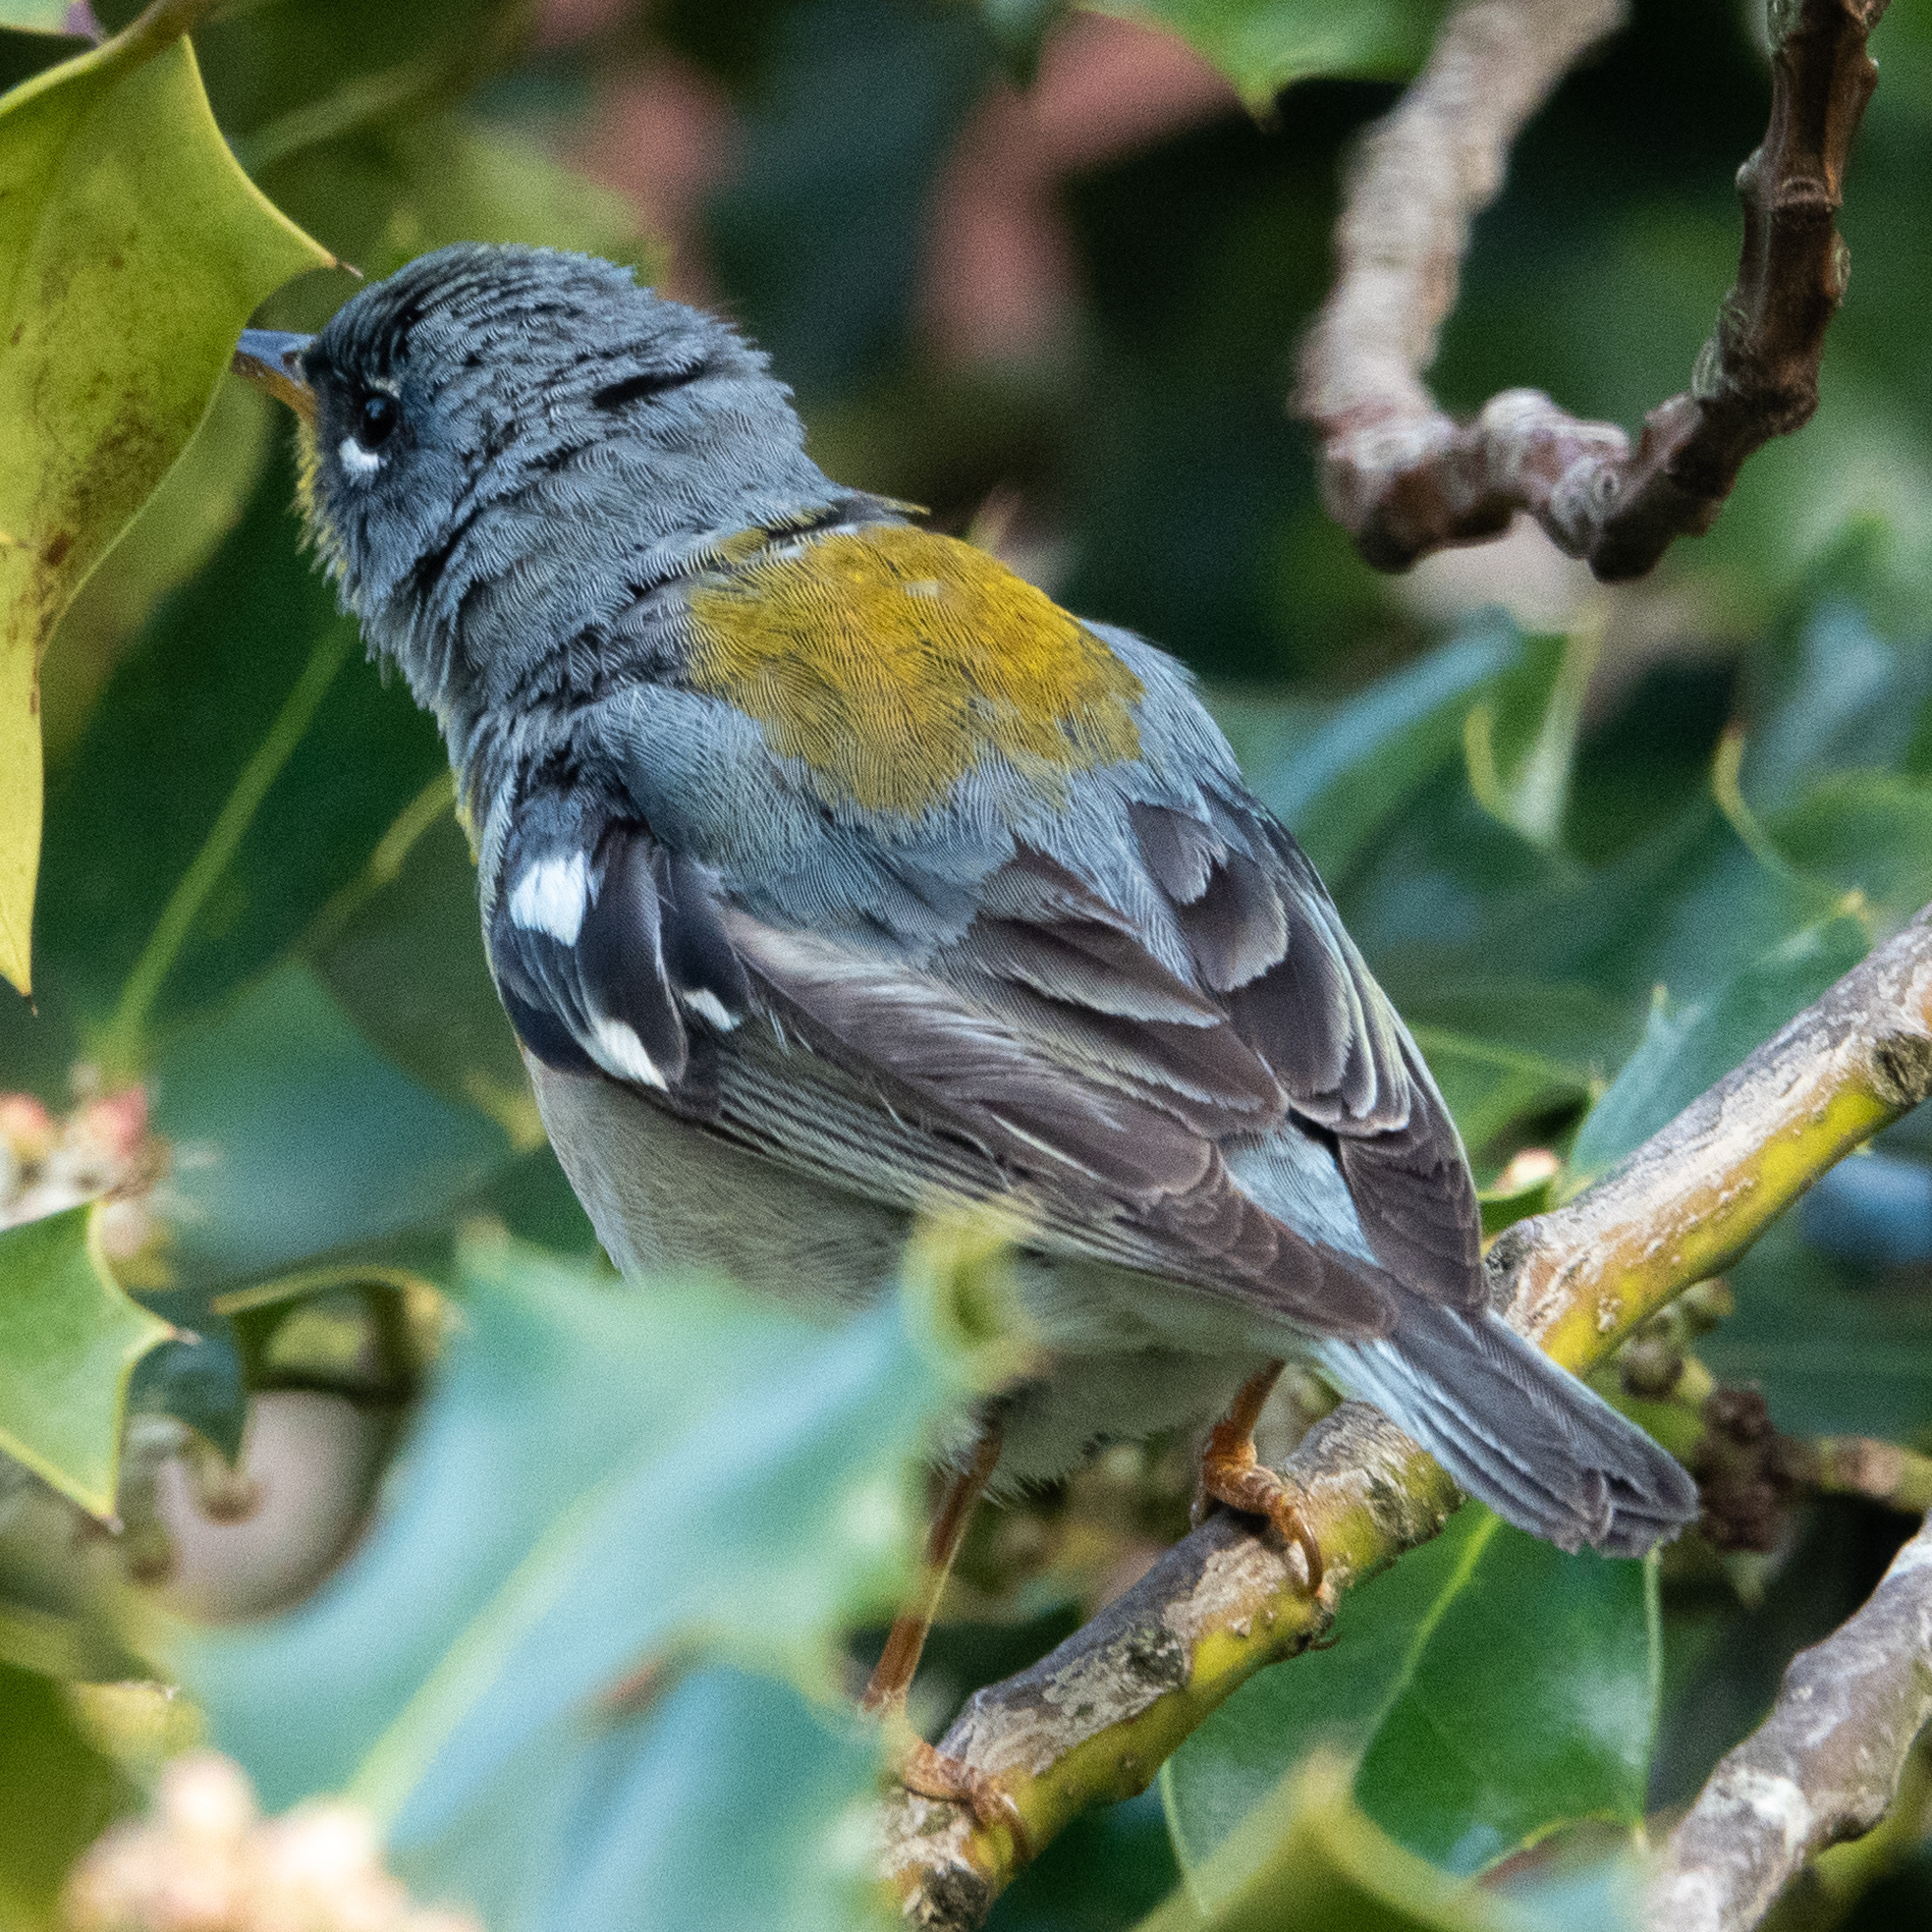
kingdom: Animalia
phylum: Chordata
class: Aves
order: Passeriformes
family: Parulidae
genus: Setophaga
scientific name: Setophaga americana
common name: Northern parula
